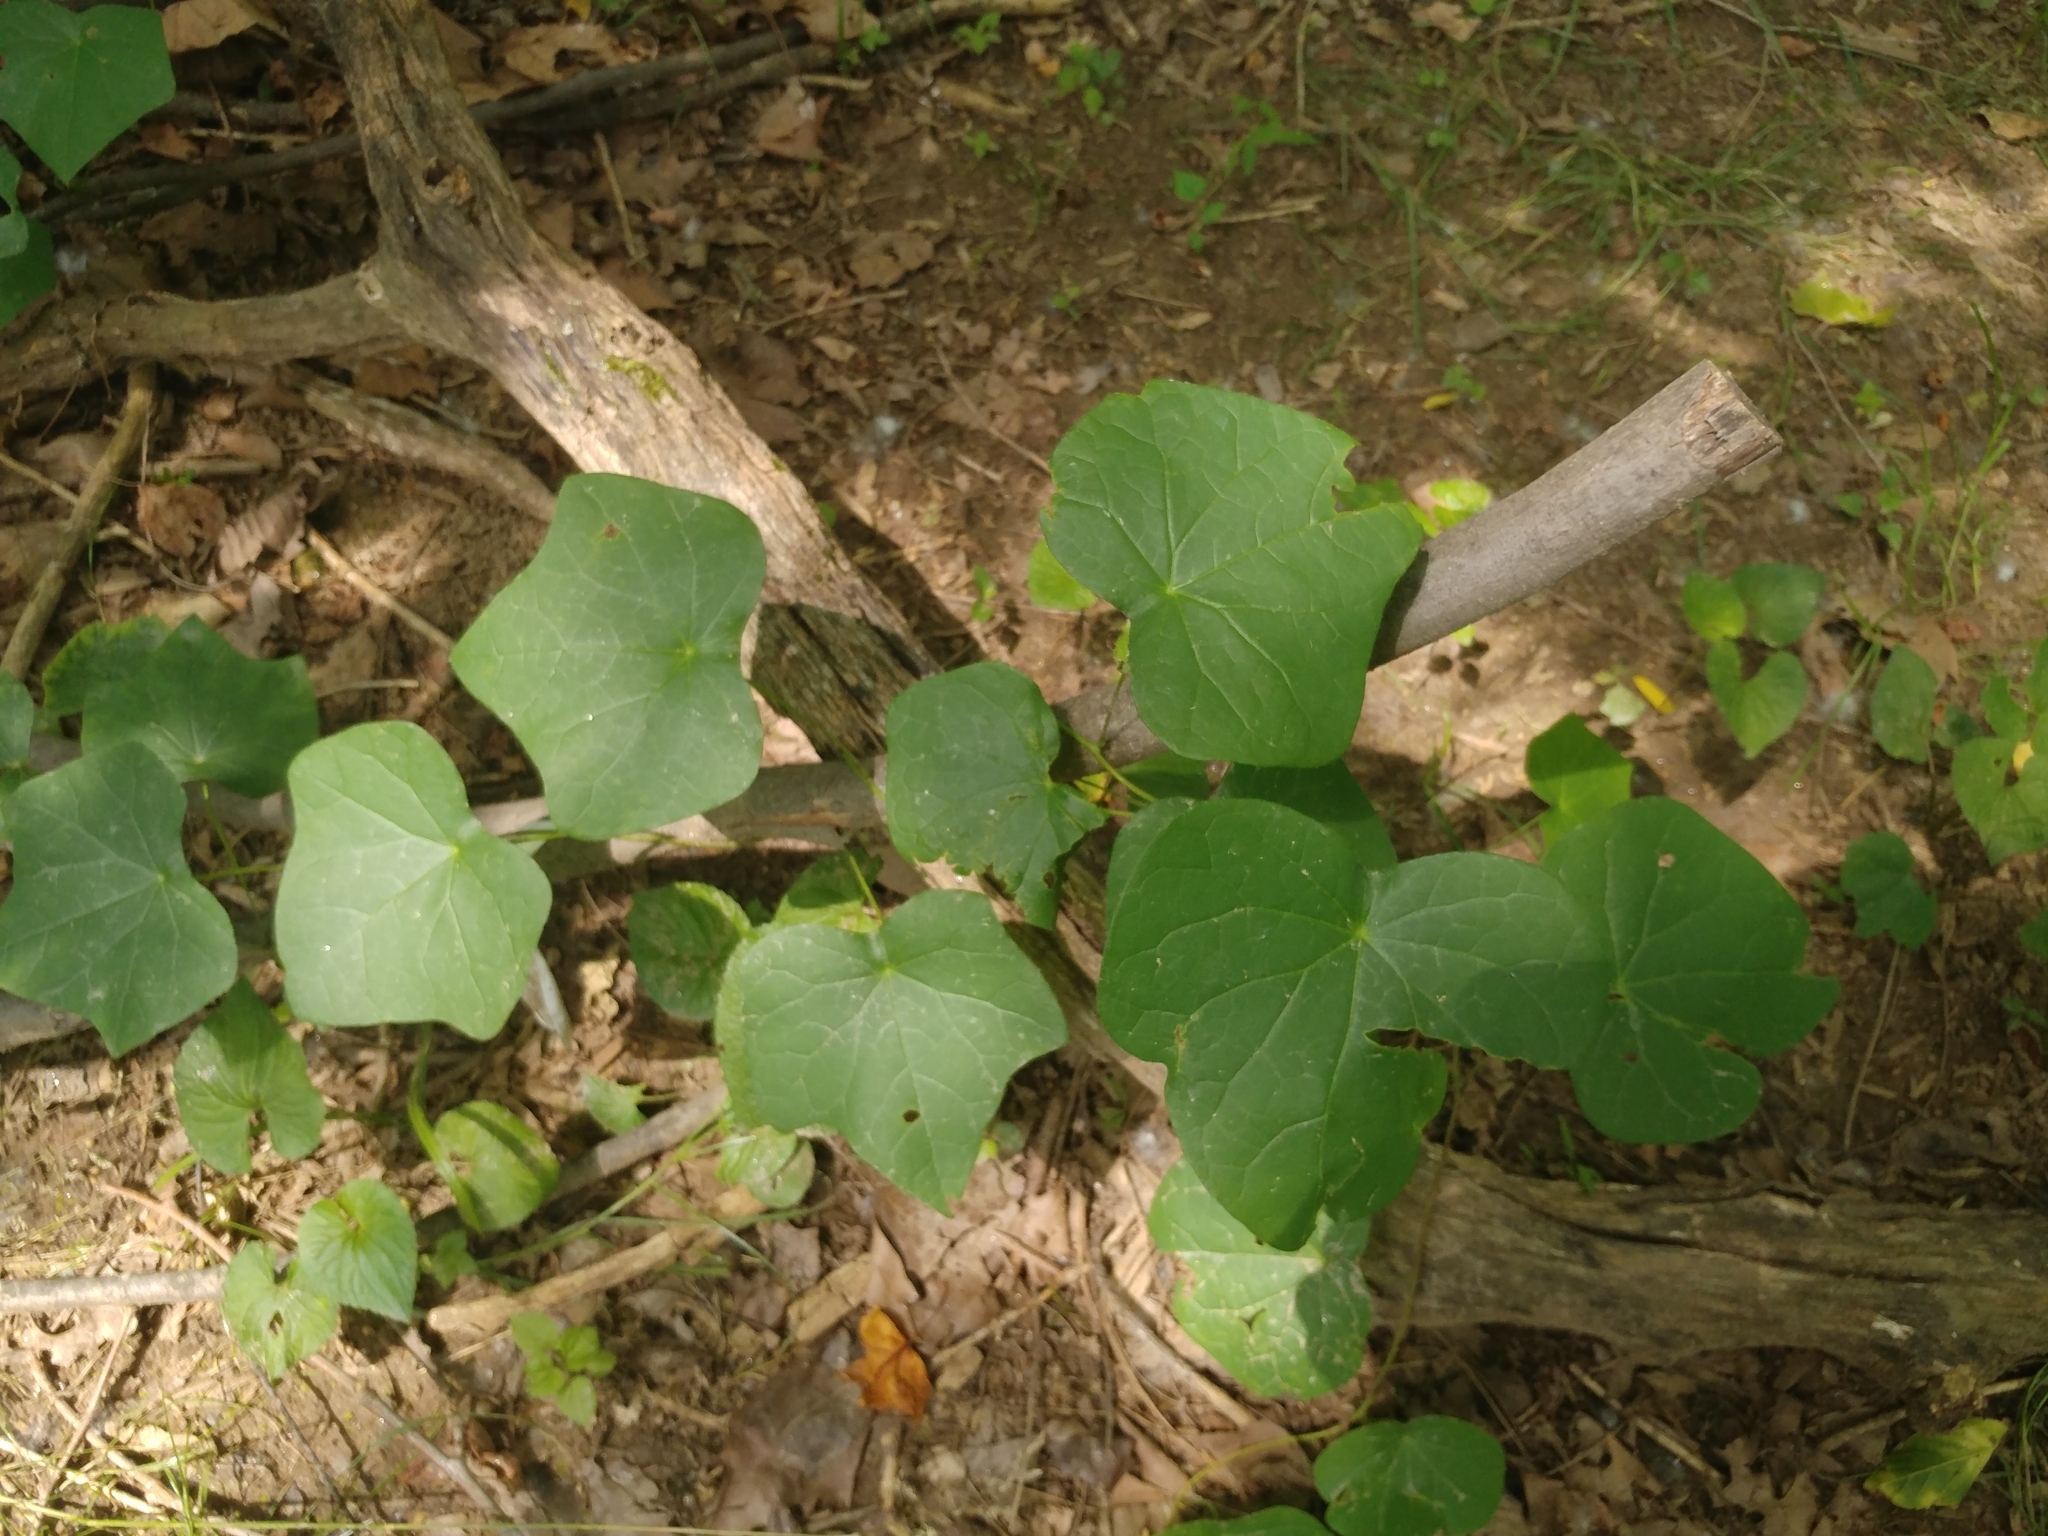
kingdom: Plantae
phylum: Tracheophyta
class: Magnoliopsida
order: Ranunculales
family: Menispermaceae
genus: Menispermum
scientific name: Menispermum canadense
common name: Moonseed
